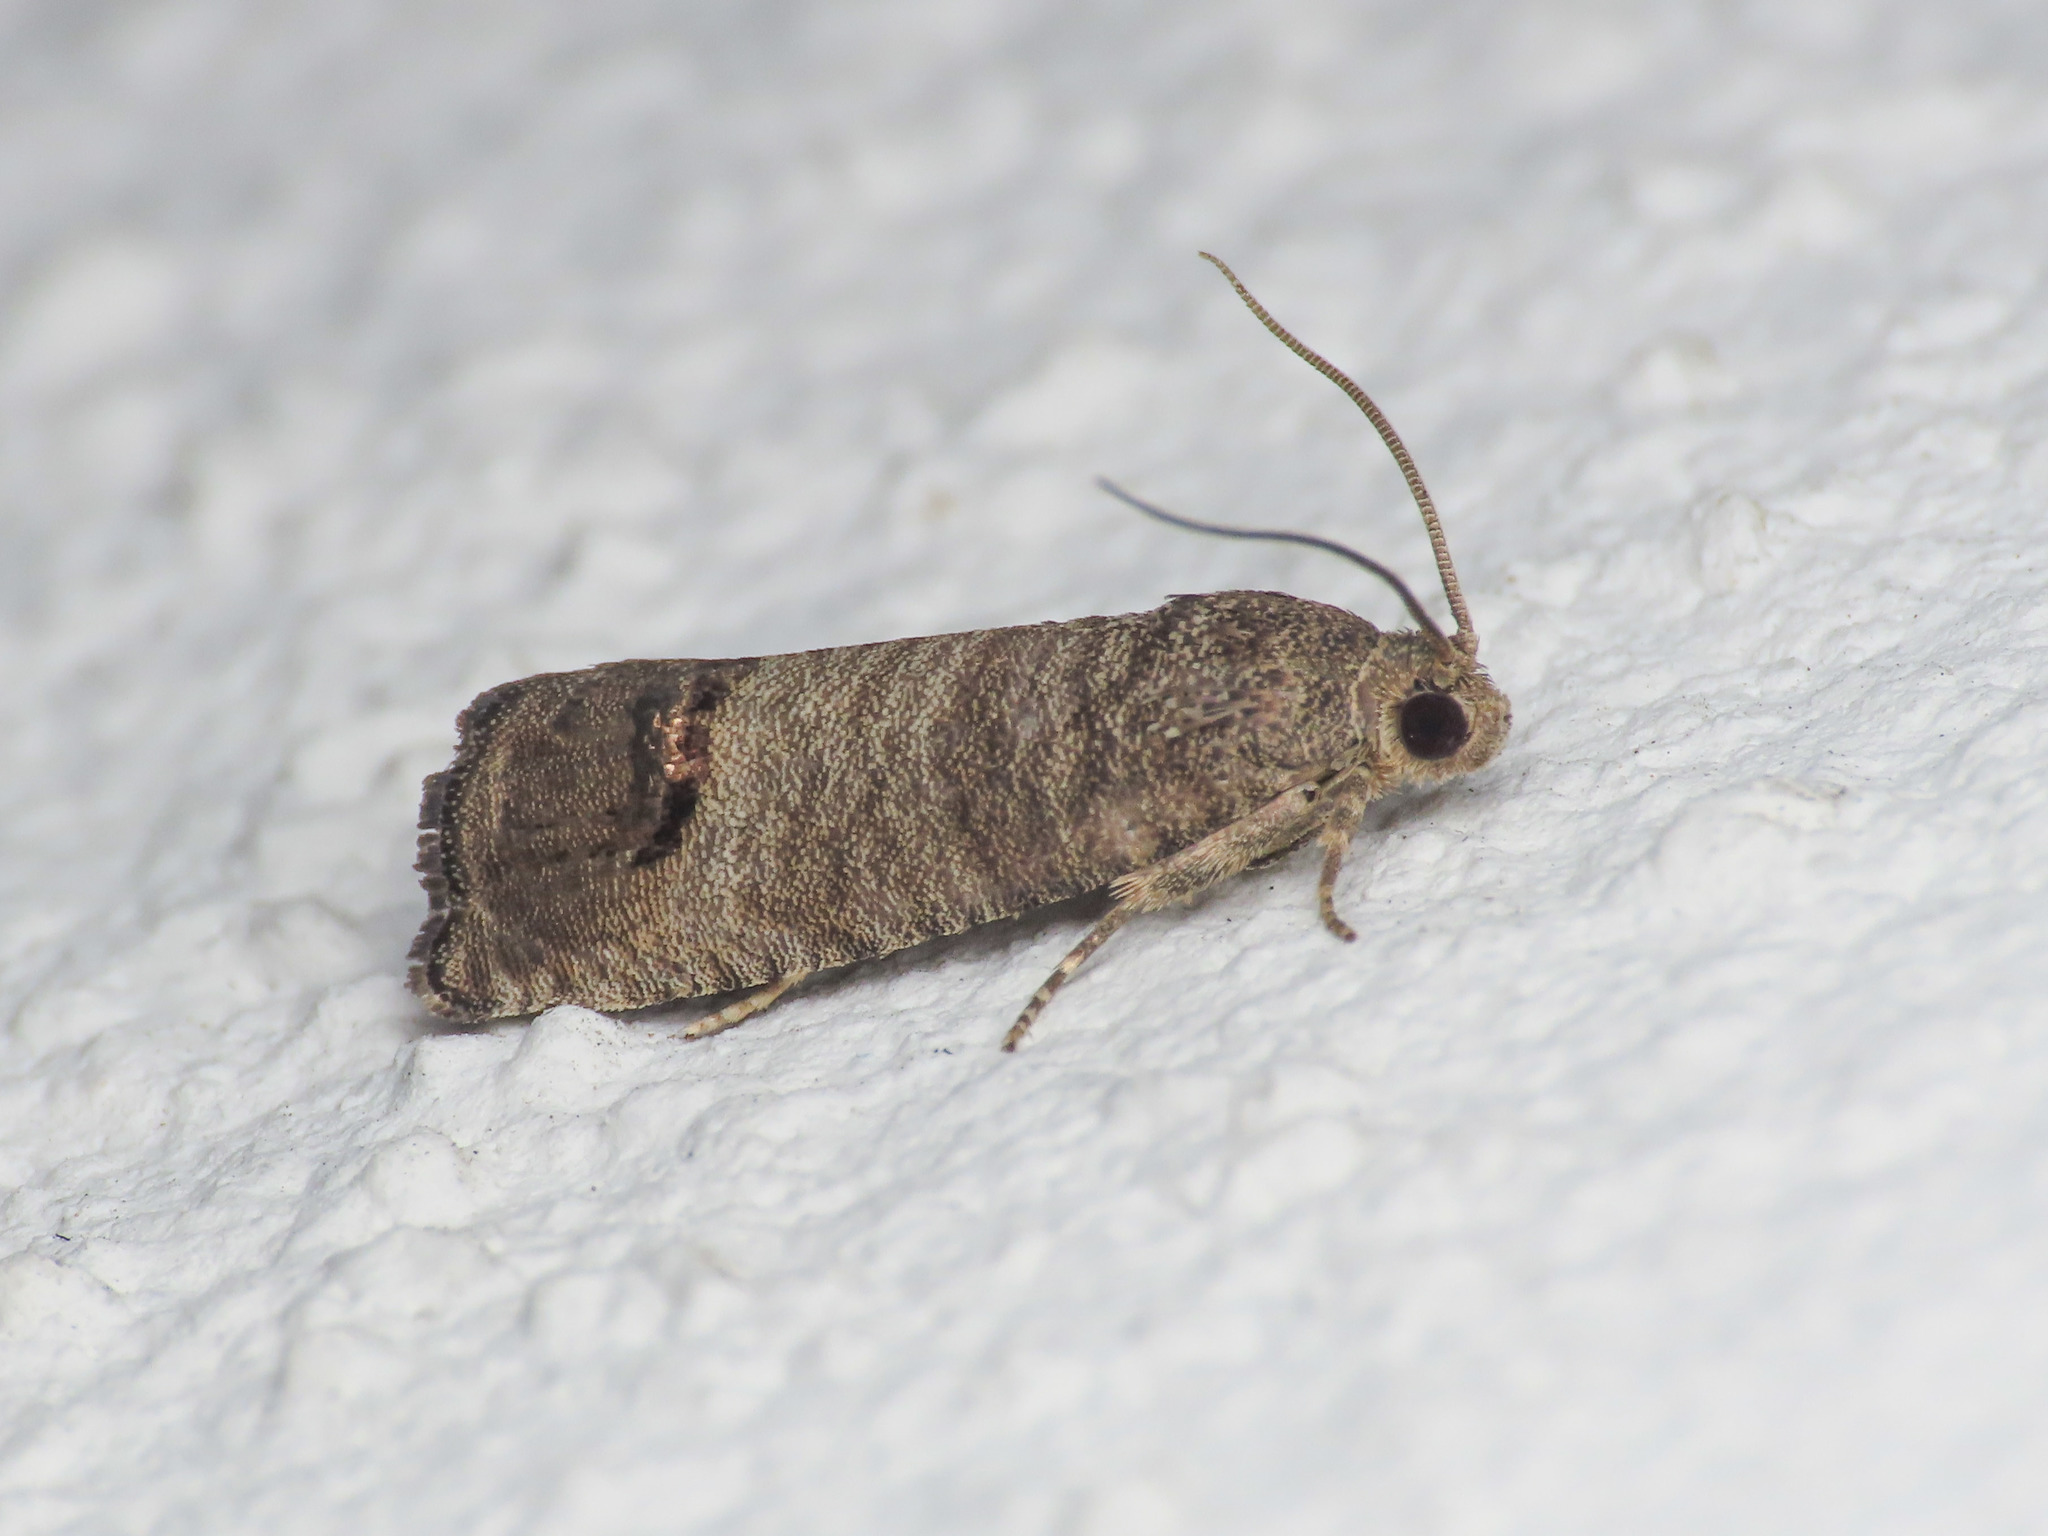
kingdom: Animalia
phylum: Arthropoda
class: Insecta
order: Lepidoptera
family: Tortricidae
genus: Cydia
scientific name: Cydia pomonella
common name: Codling moth
